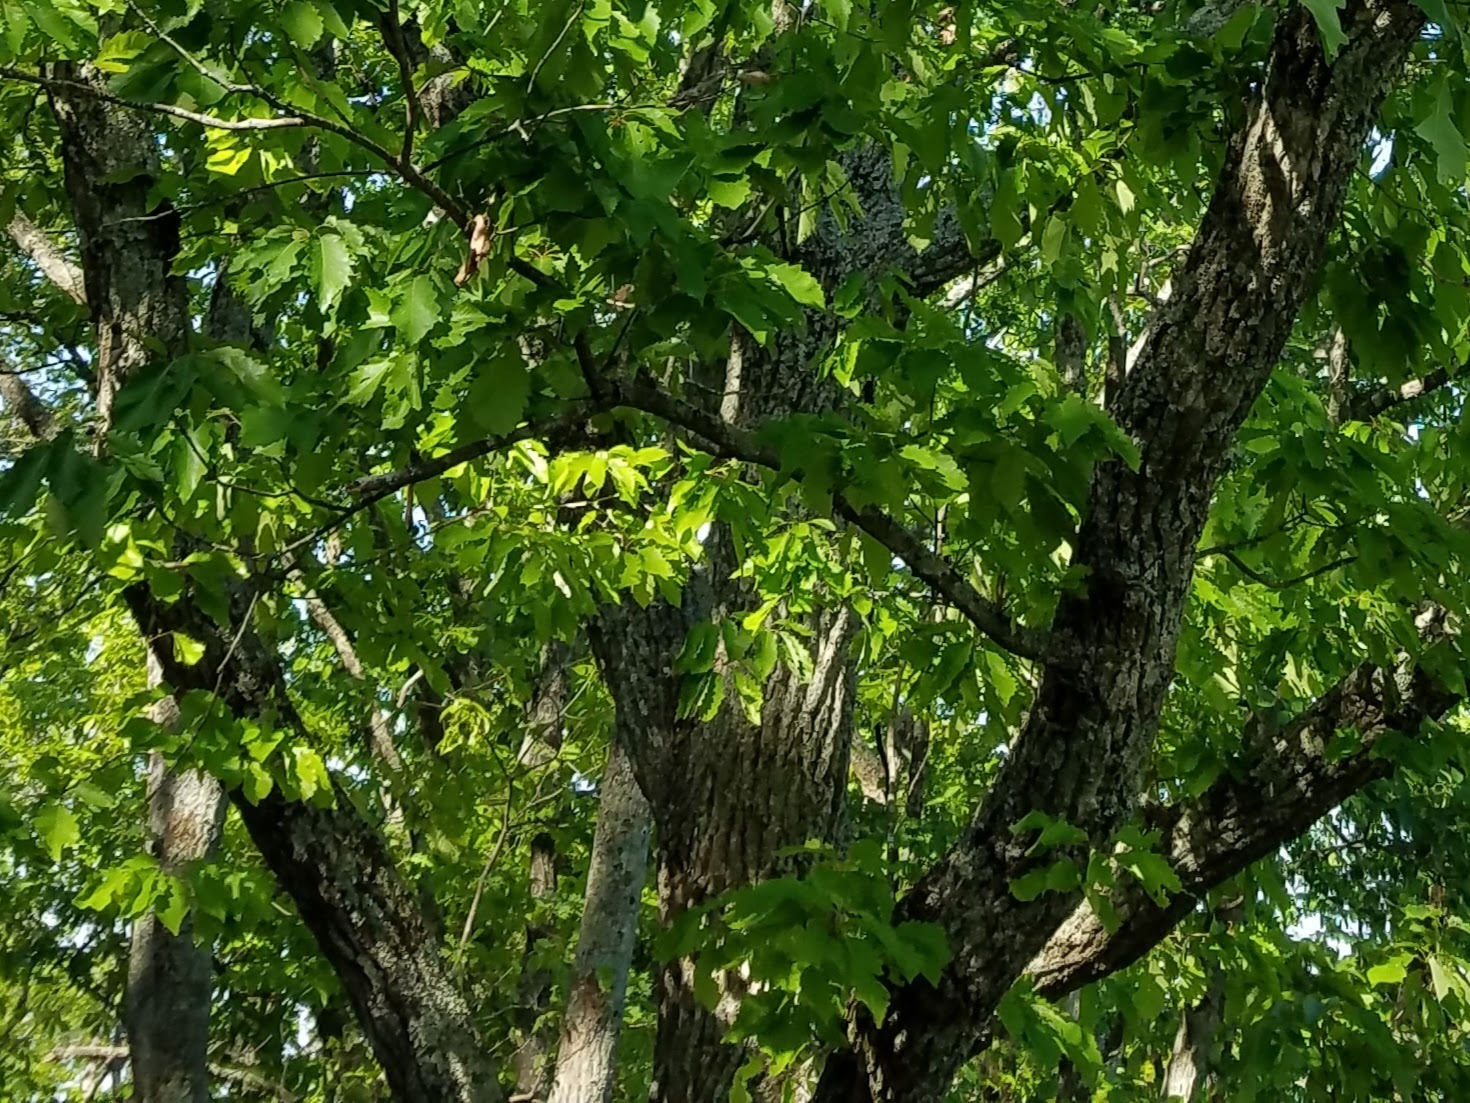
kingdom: Plantae
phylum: Tracheophyta
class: Magnoliopsida
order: Fagales
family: Fagaceae
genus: Quercus
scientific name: Quercus montana
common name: Chestnut oak
